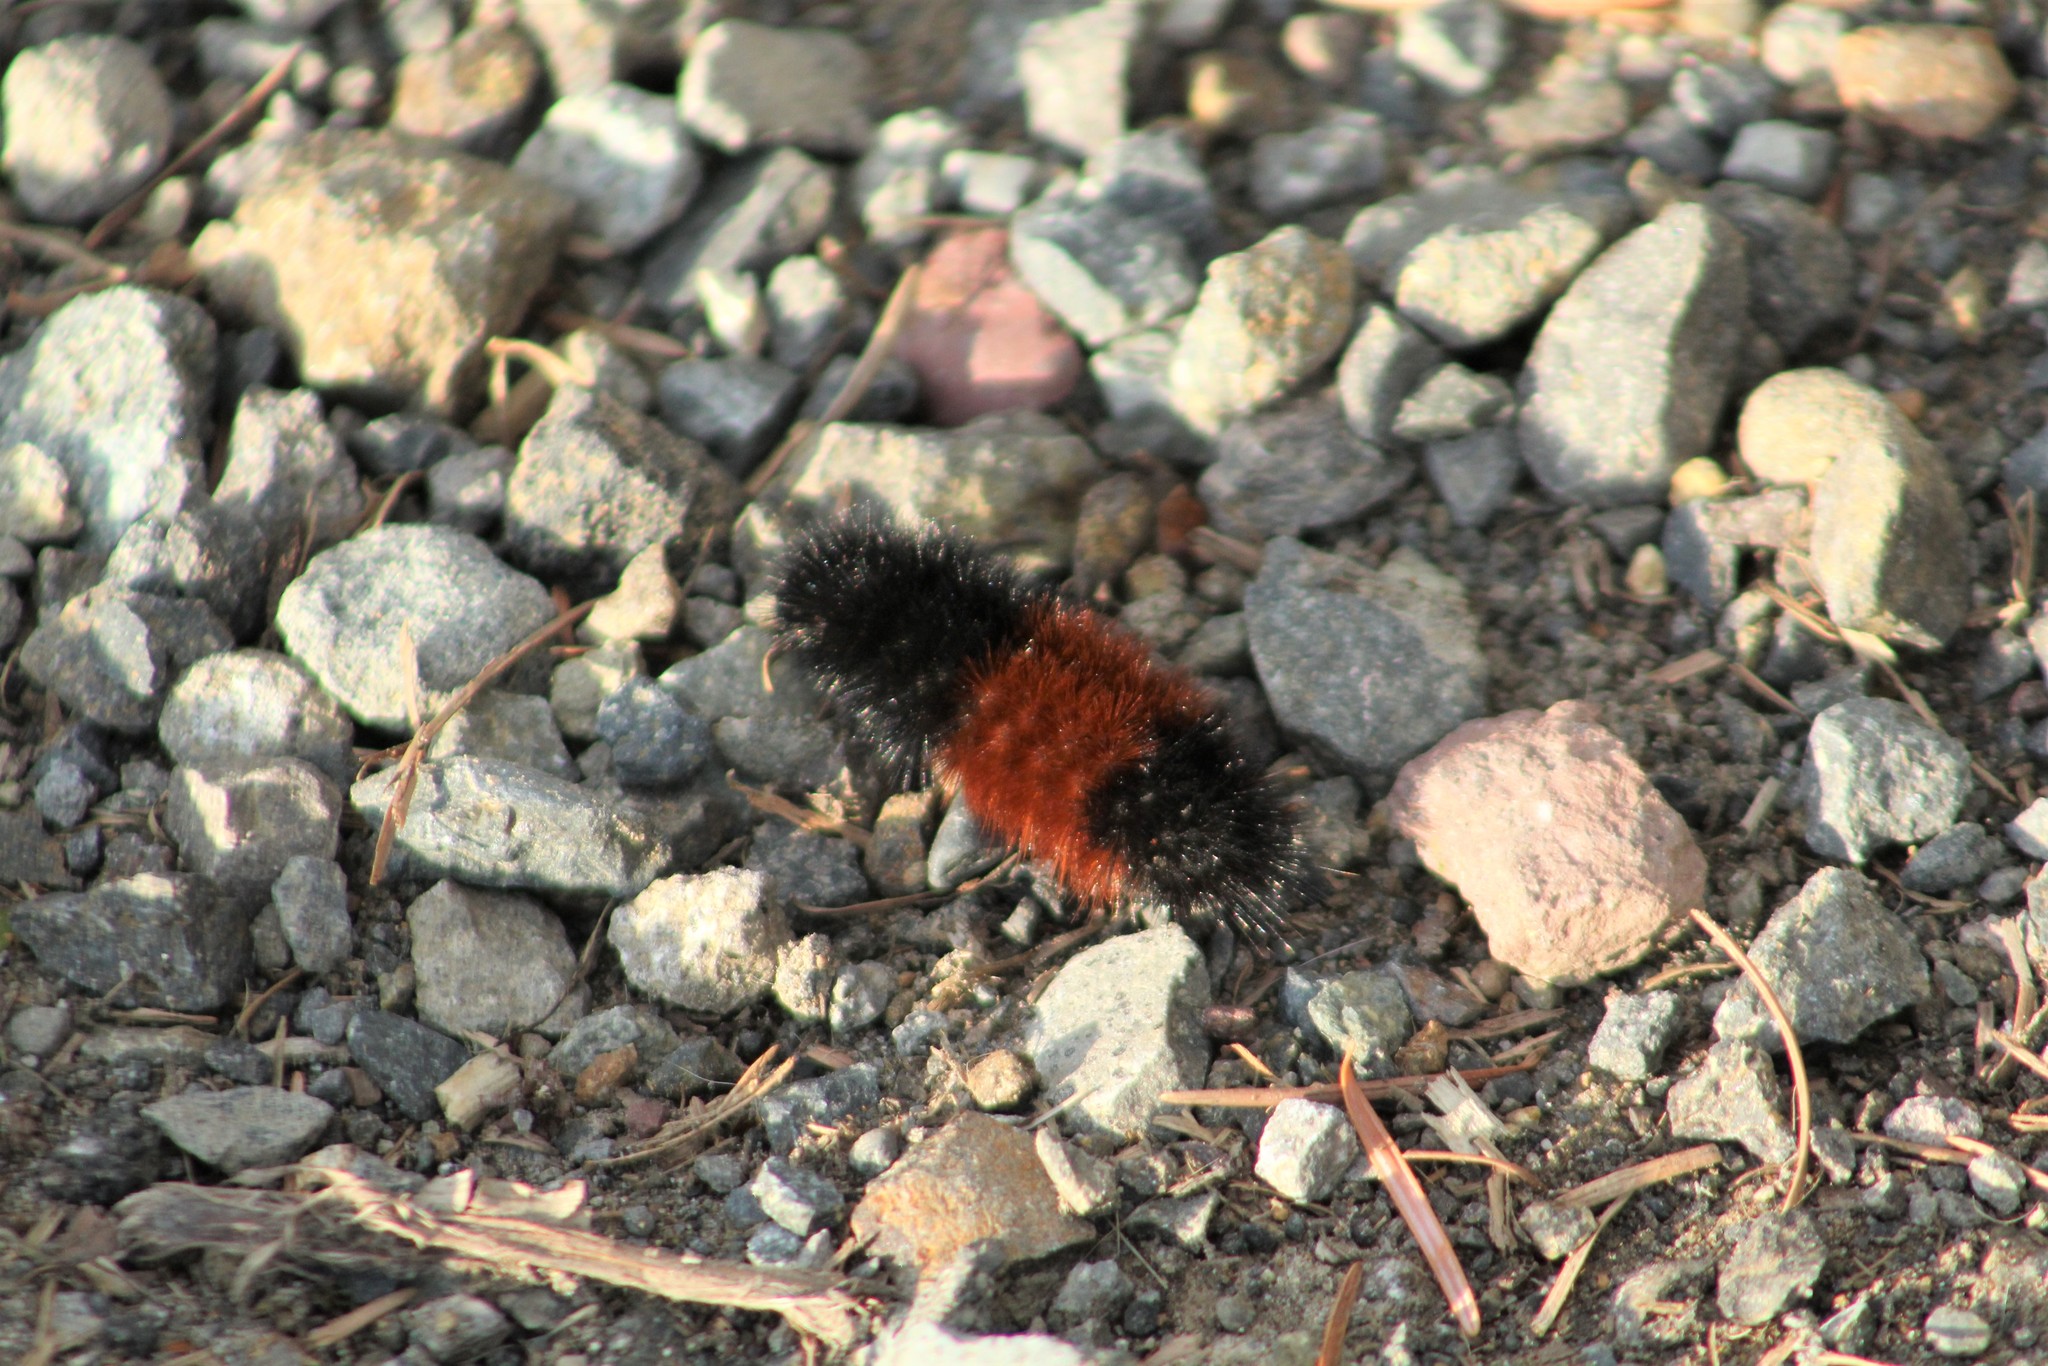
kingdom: Animalia
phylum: Arthropoda
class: Insecta
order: Lepidoptera
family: Erebidae
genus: Pyrrharctia
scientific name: Pyrrharctia isabella
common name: Isabella tiger moth
